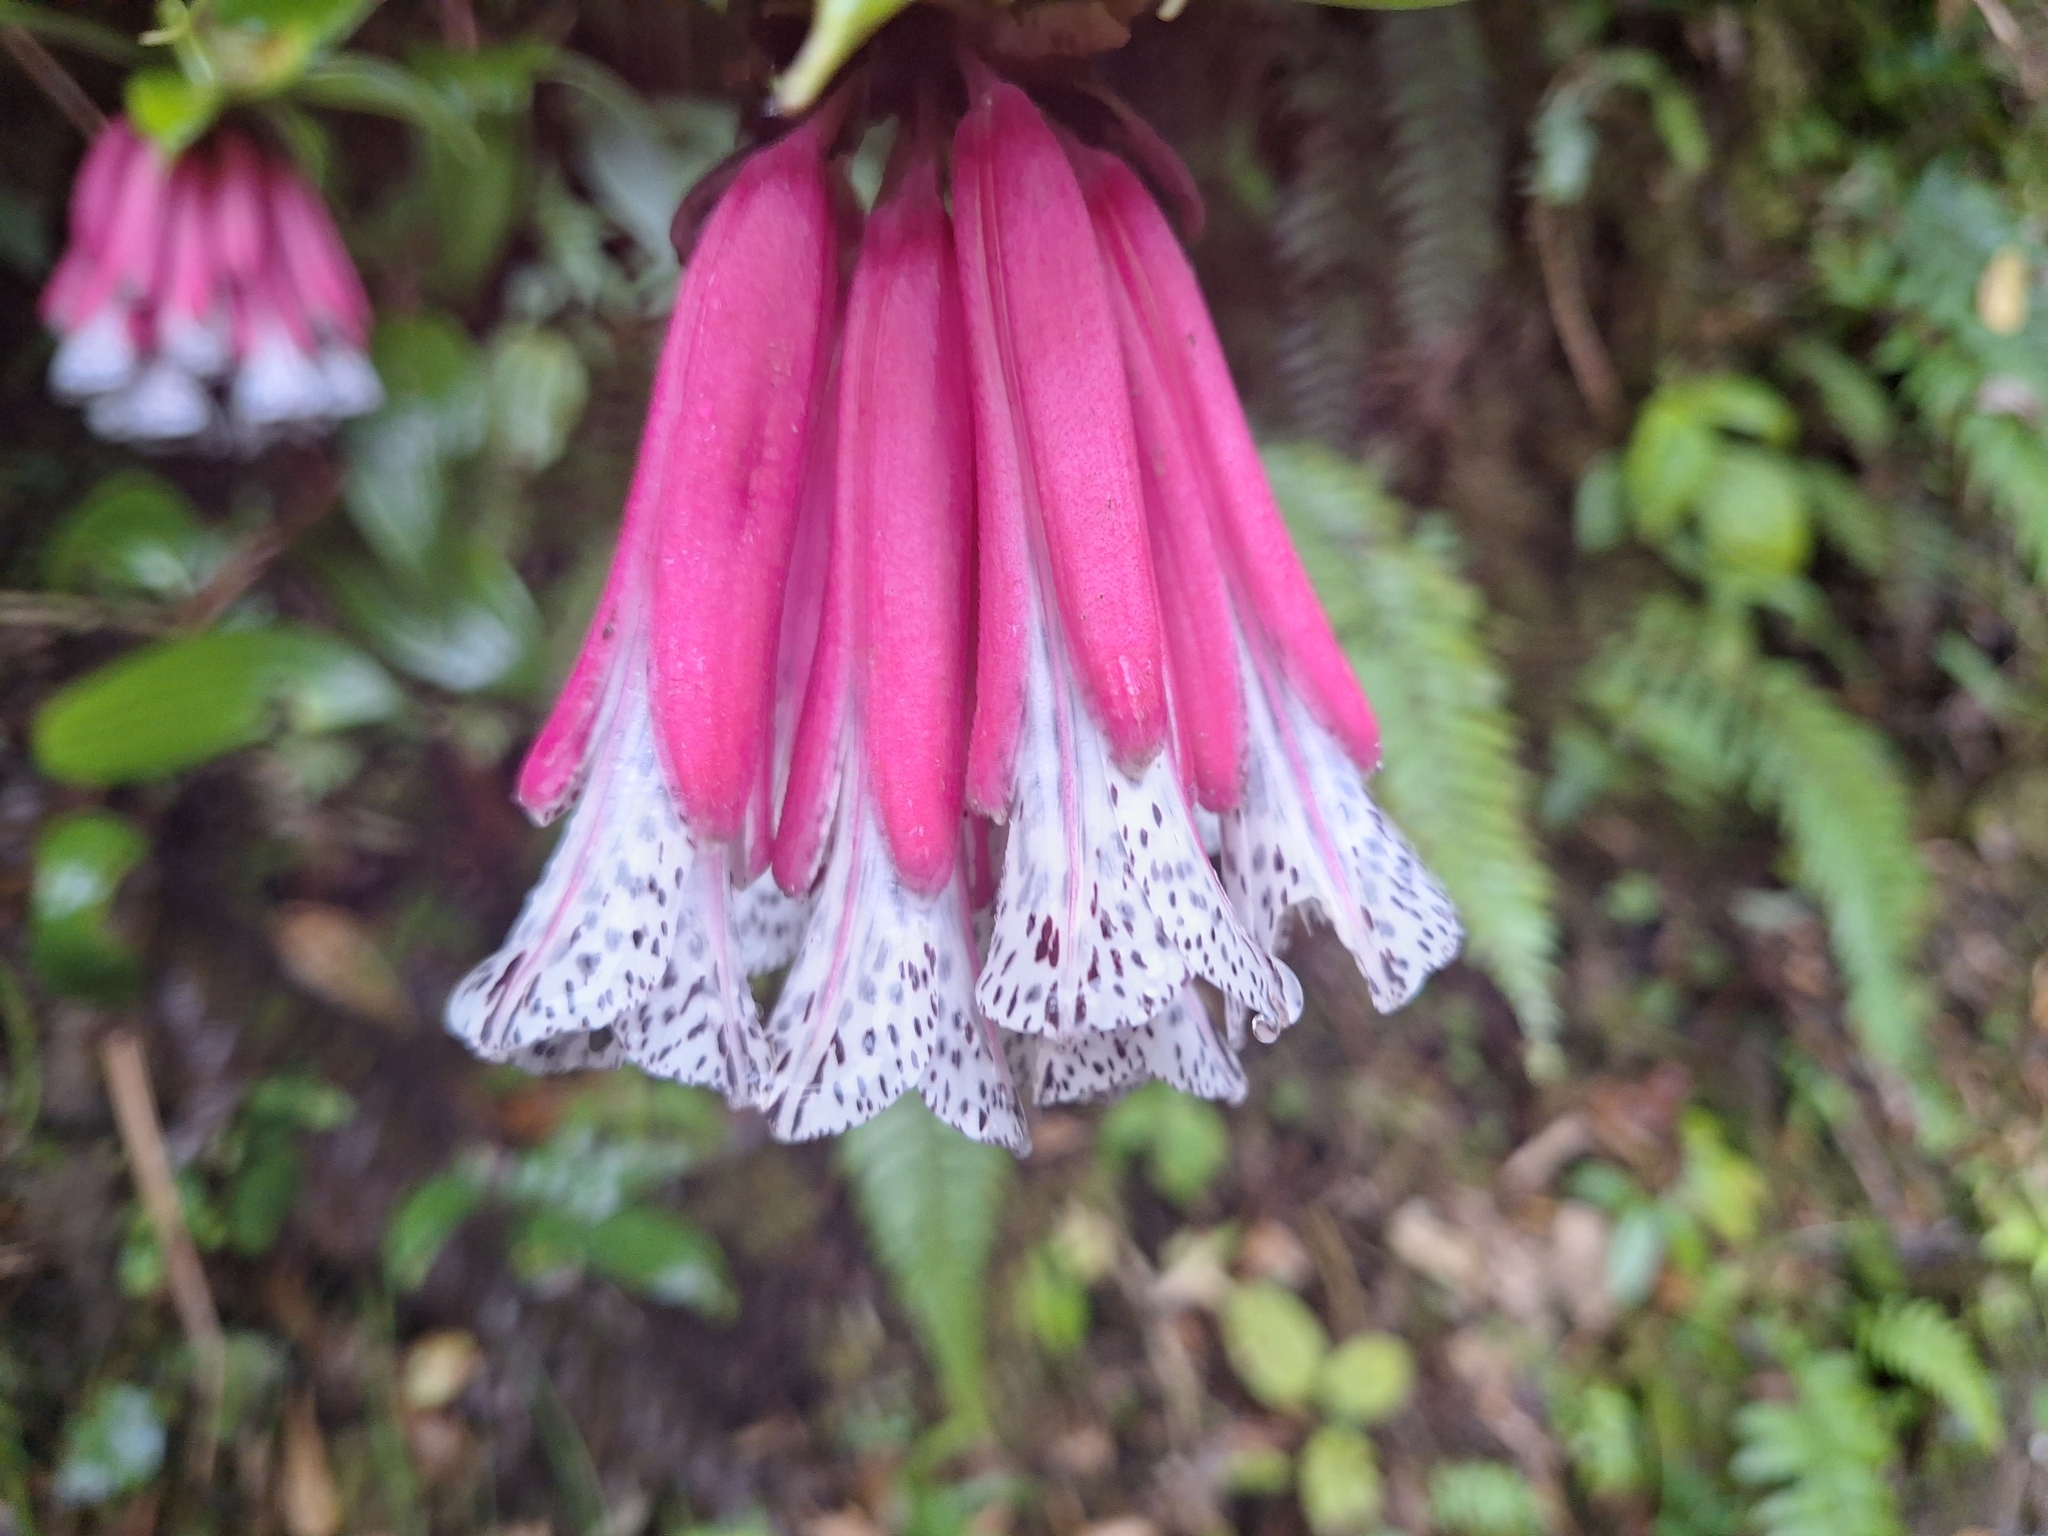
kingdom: Plantae
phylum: Tracheophyta
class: Liliopsida
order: Liliales
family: Alstroemeriaceae
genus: Bomarea
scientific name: Bomarea pardina
